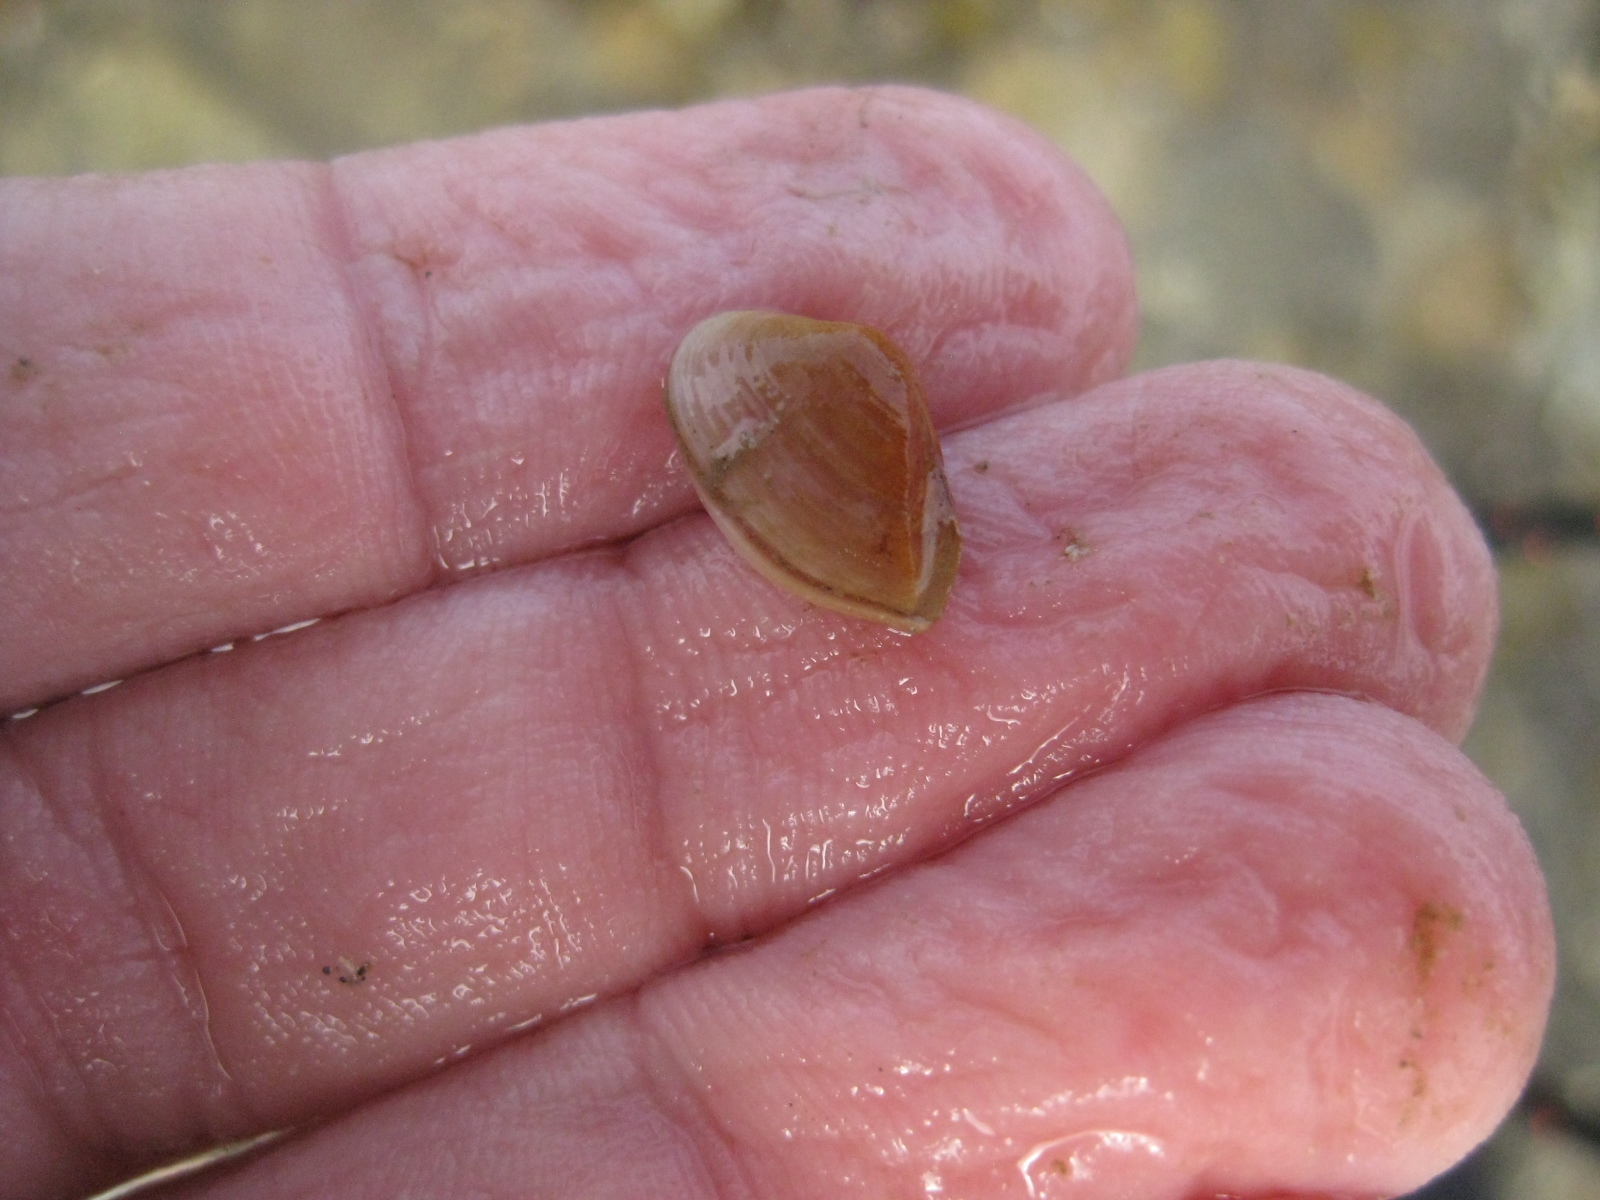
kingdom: Animalia
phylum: Mollusca
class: Bivalvia
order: Myida
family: Corbulidae
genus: Corbula
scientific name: Corbula zelandica
